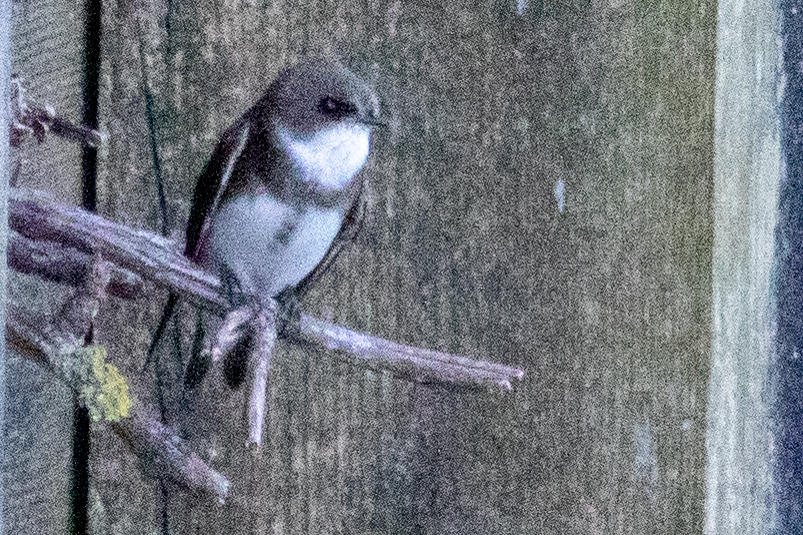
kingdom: Animalia
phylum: Chordata
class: Aves
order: Passeriformes
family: Hirundinidae
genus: Riparia
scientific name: Riparia riparia
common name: Sand martin
